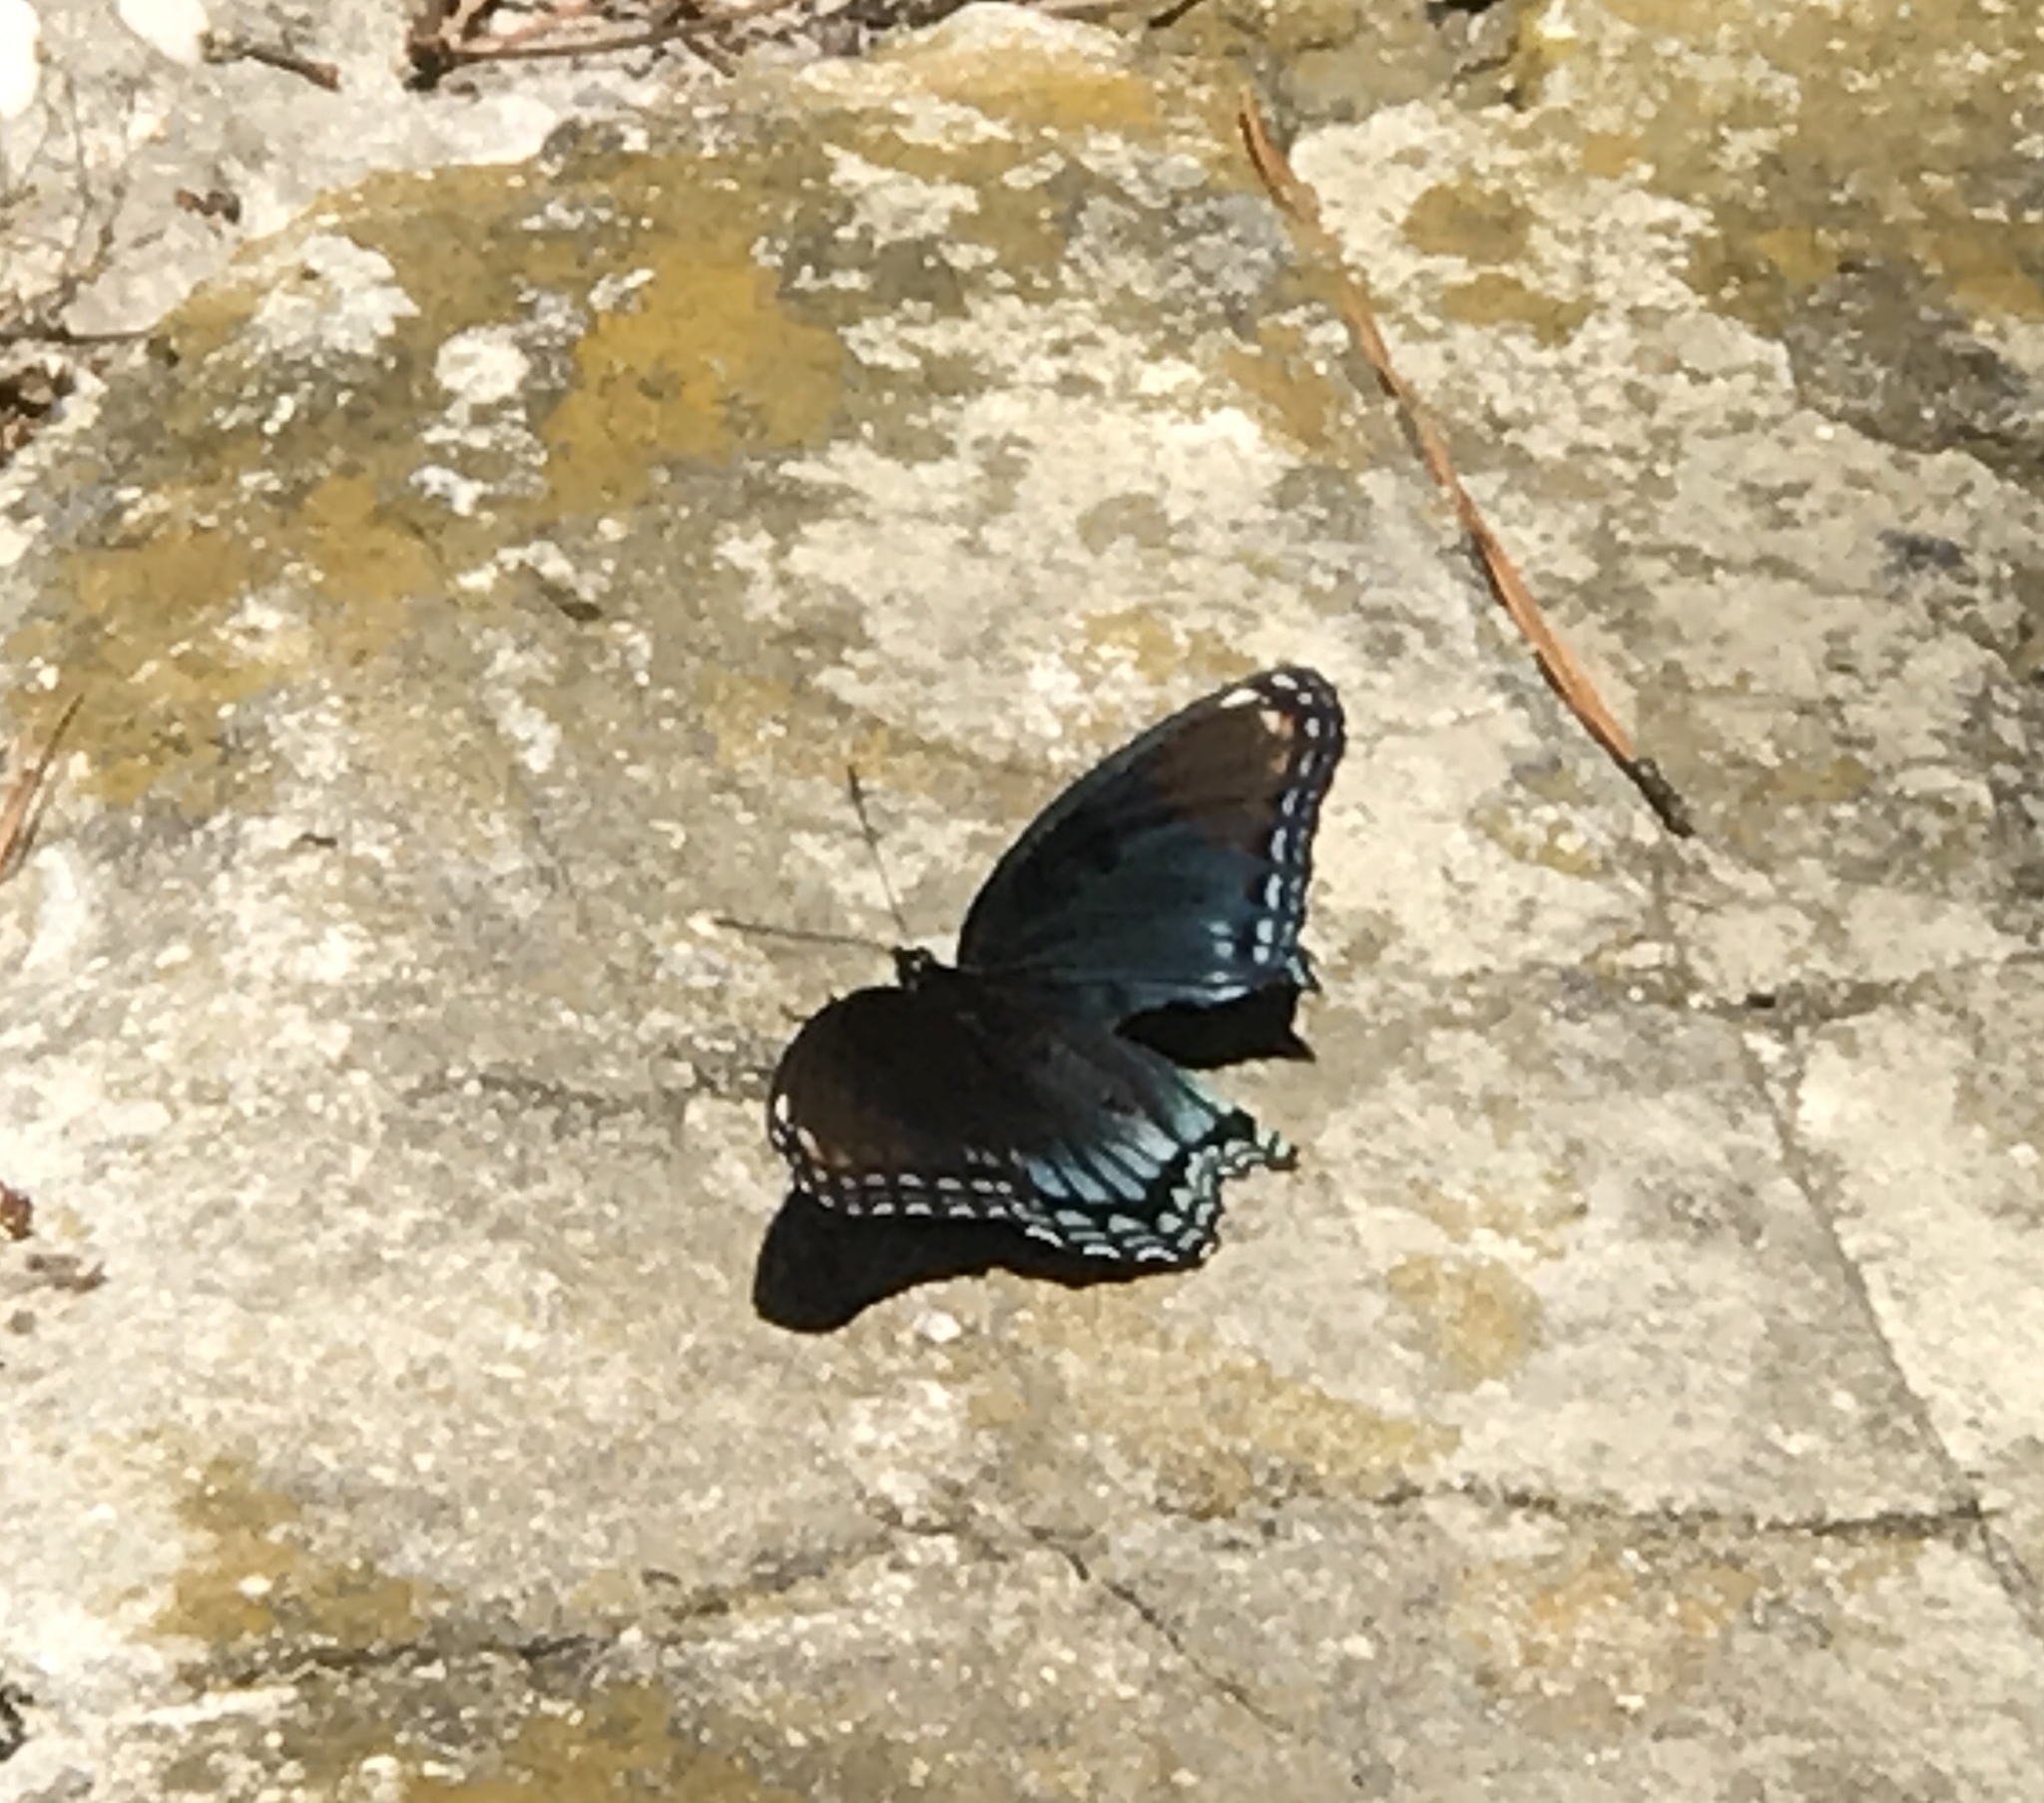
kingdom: Animalia
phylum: Arthropoda
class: Insecta
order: Lepidoptera
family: Nymphalidae
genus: Limenitis
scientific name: Limenitis astyanax
